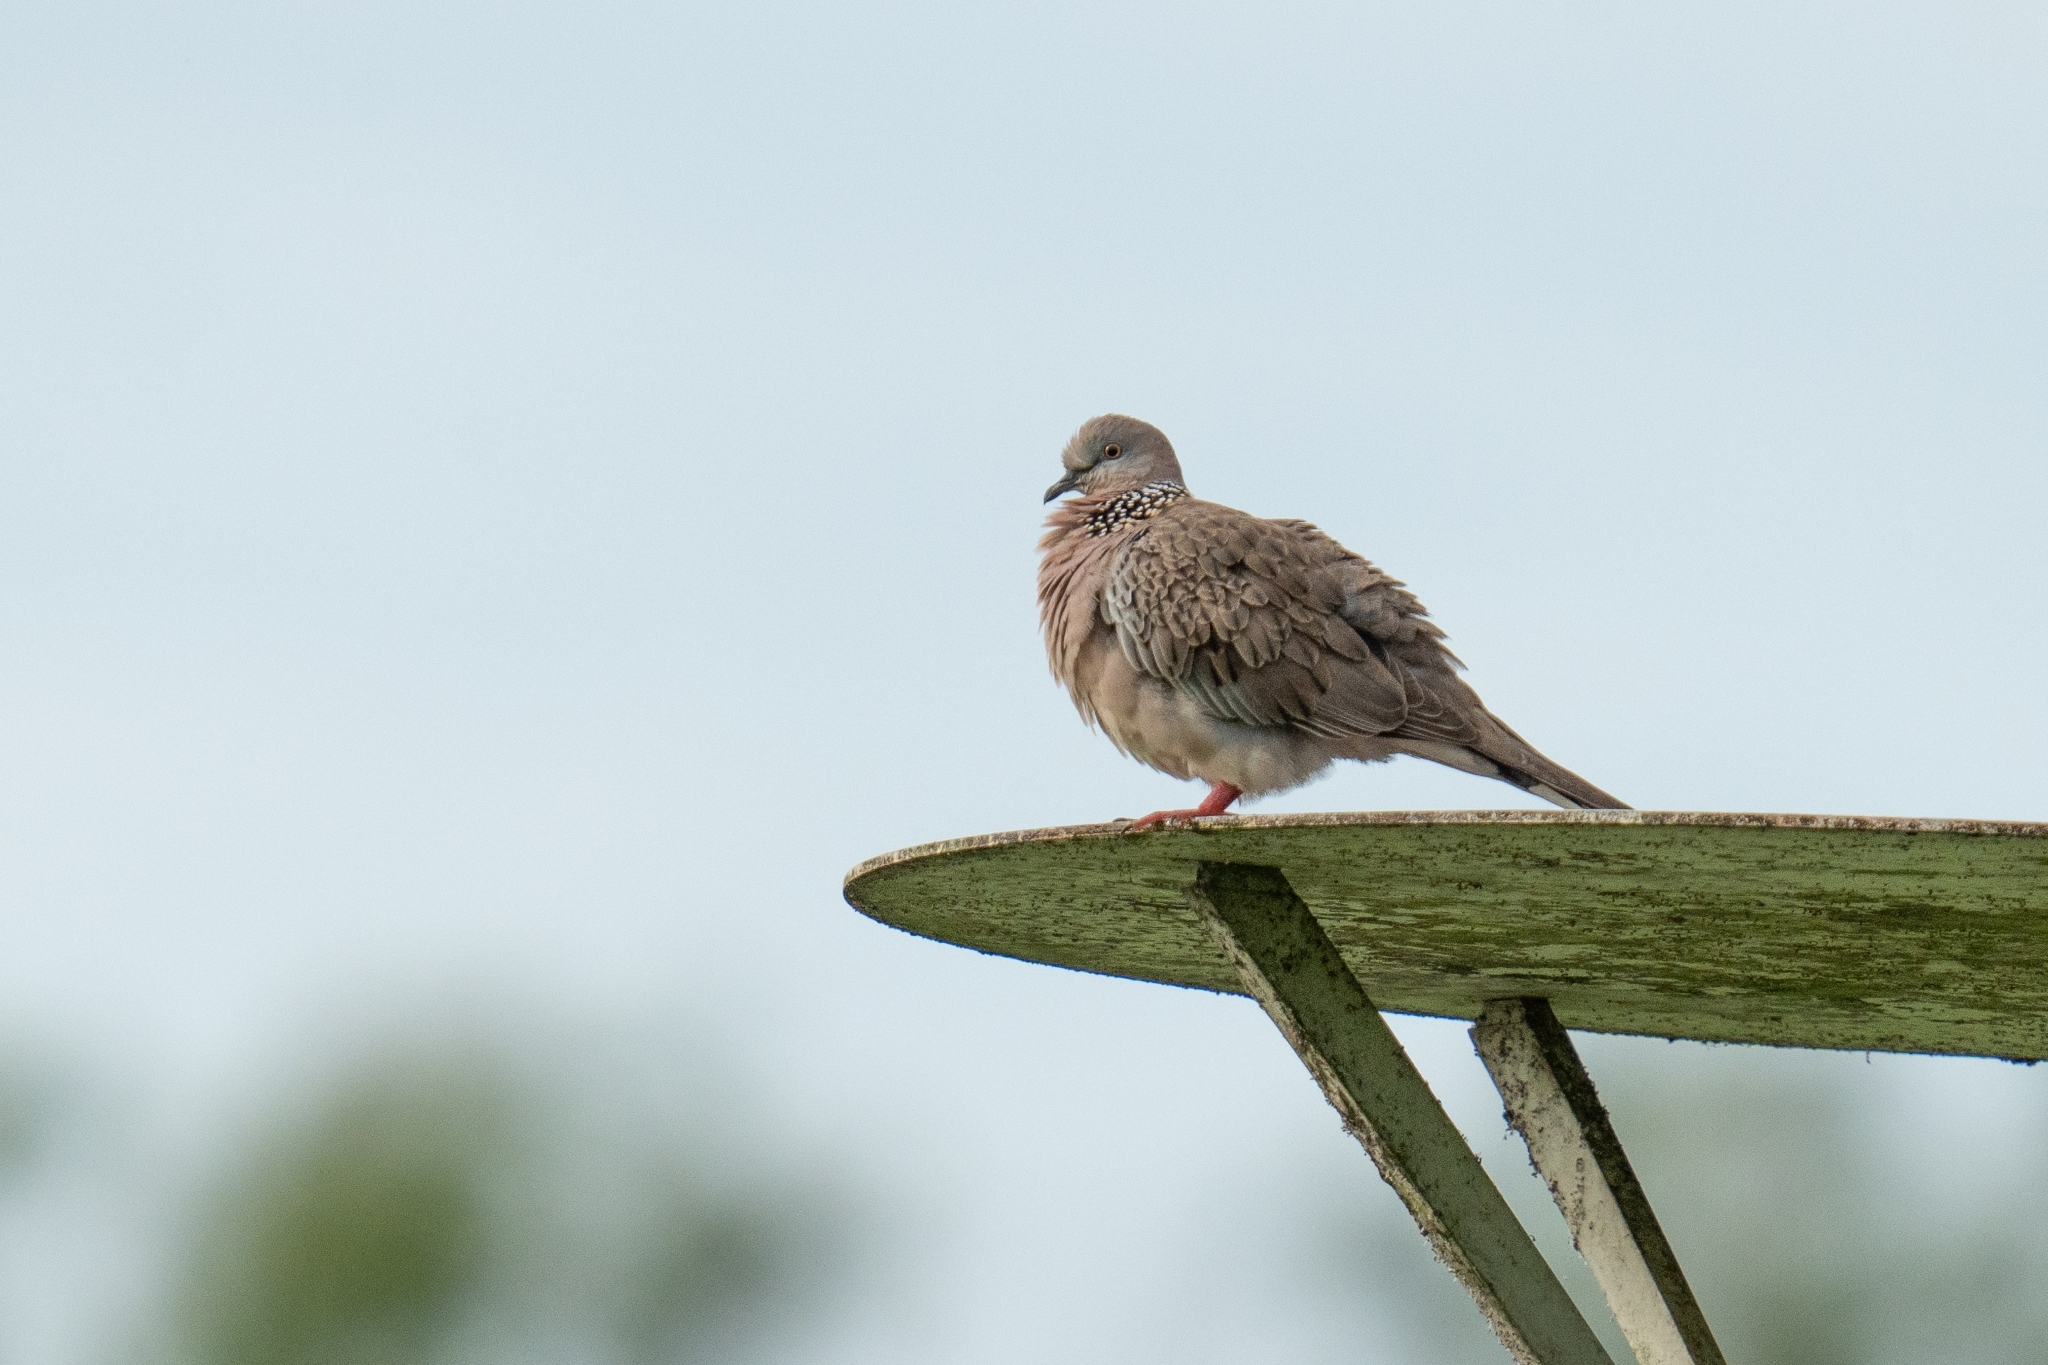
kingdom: Animalia
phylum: Chordata
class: Aves
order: Columbiformes
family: Columbidae
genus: Spilopelia
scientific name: Spilopelia chinensis
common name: Spotted dove
